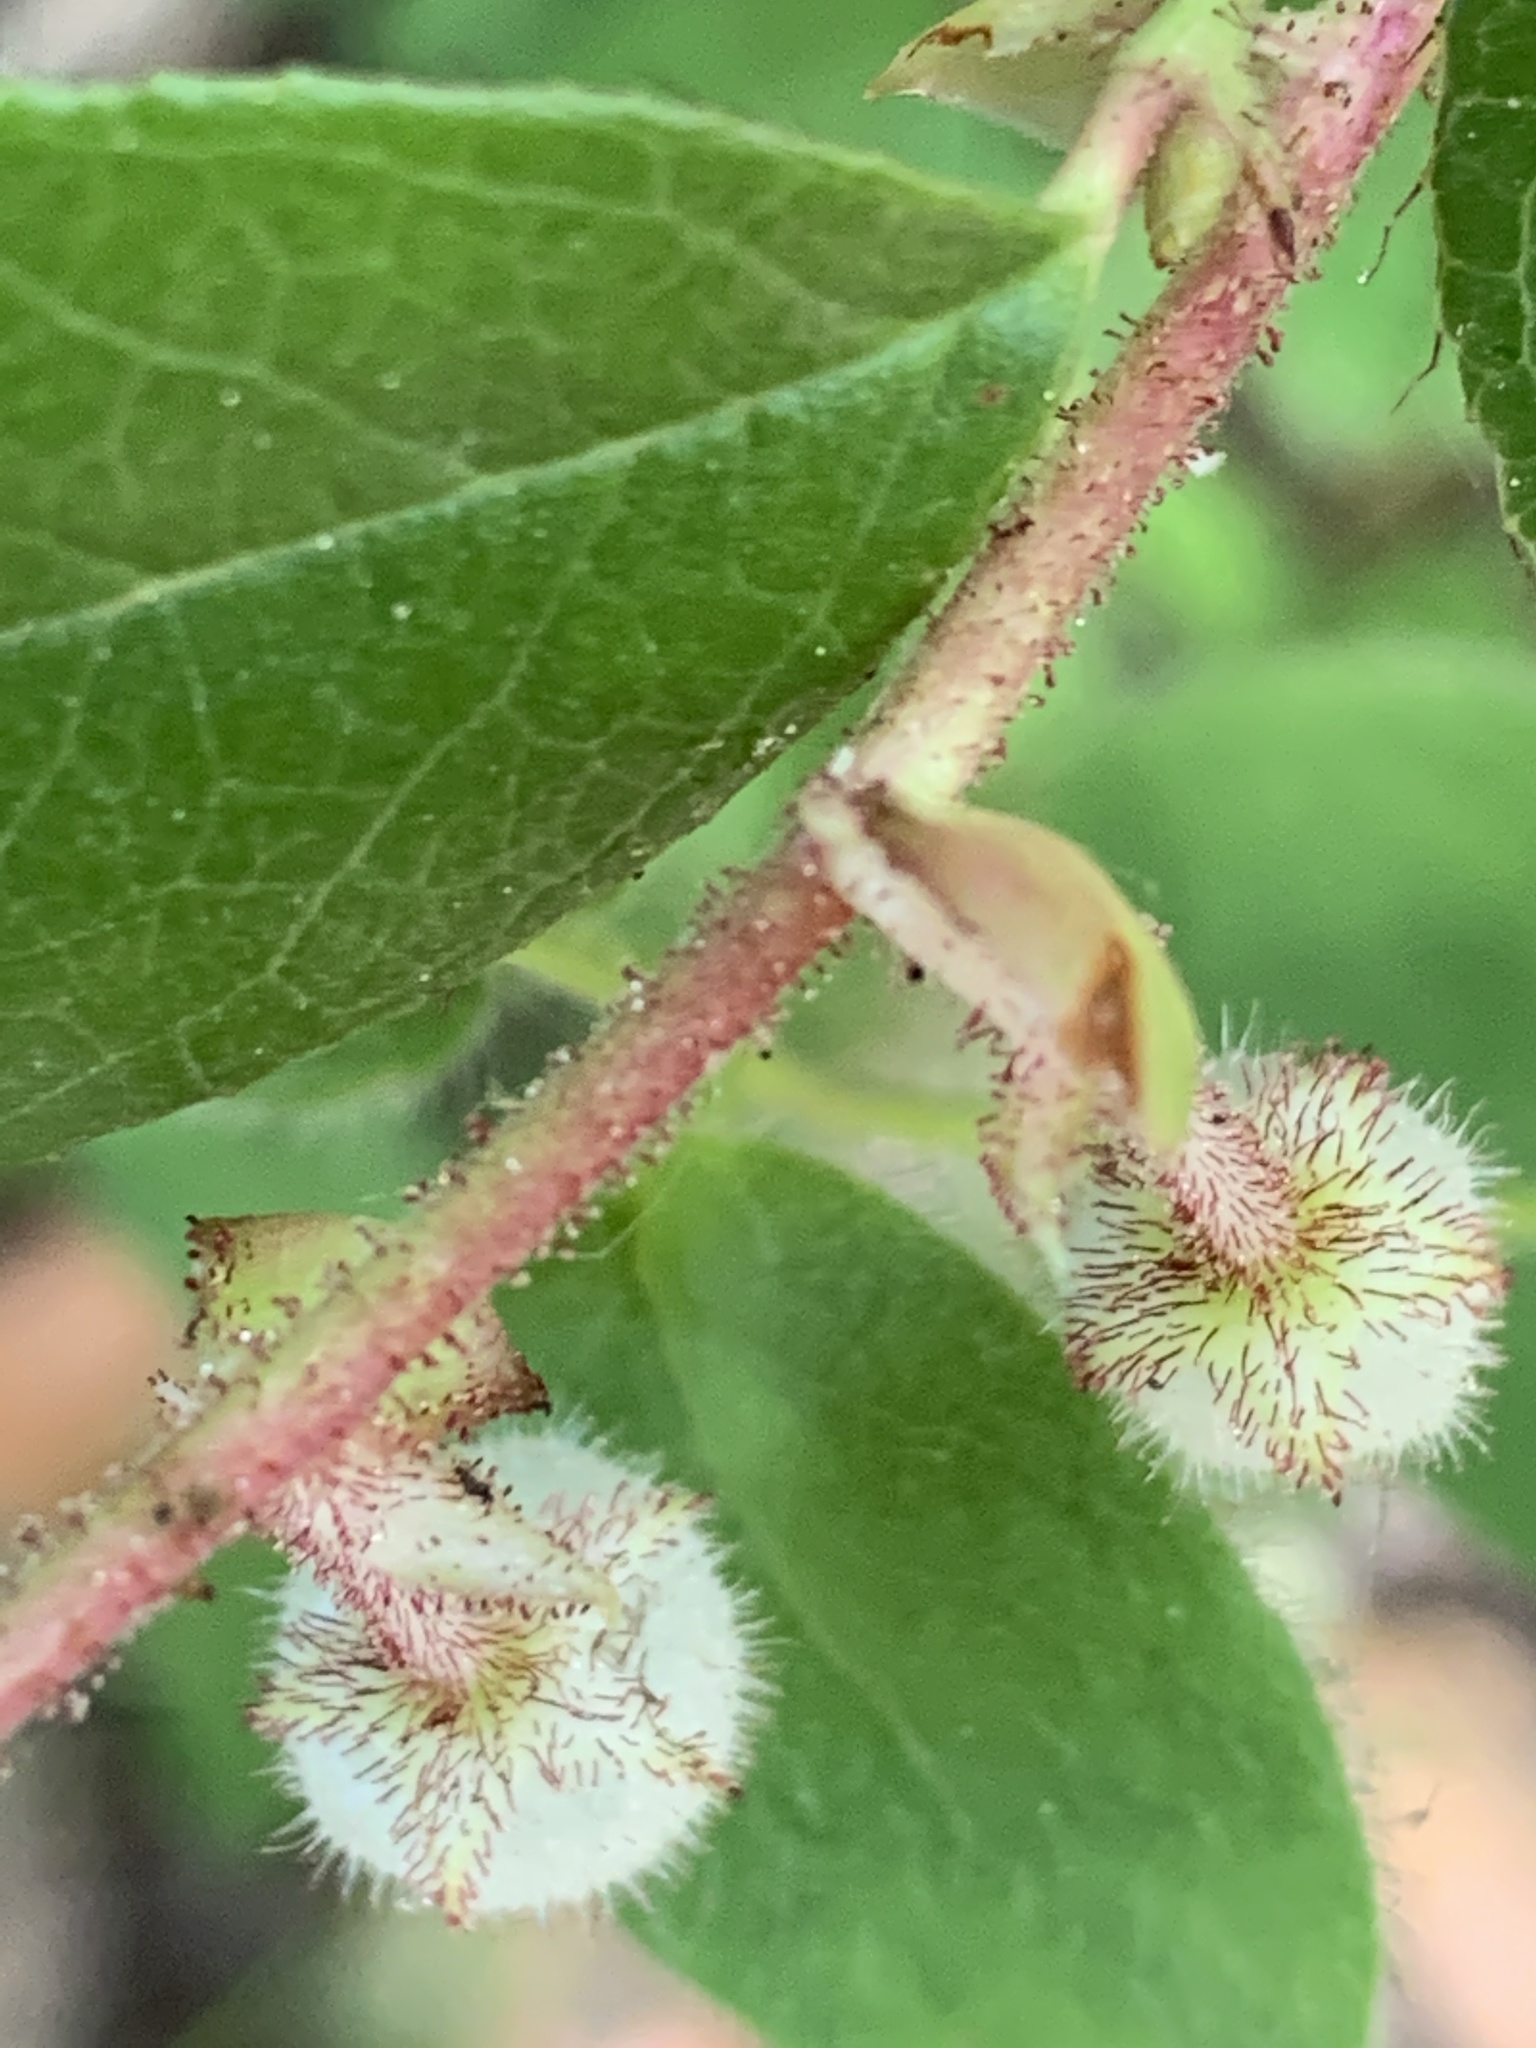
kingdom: Plantae
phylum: Tracheophyta
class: Magnoliopsida
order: Ericales
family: Ericaceae
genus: Gaultheria
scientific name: Gaultheria shallon
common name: Shallon
